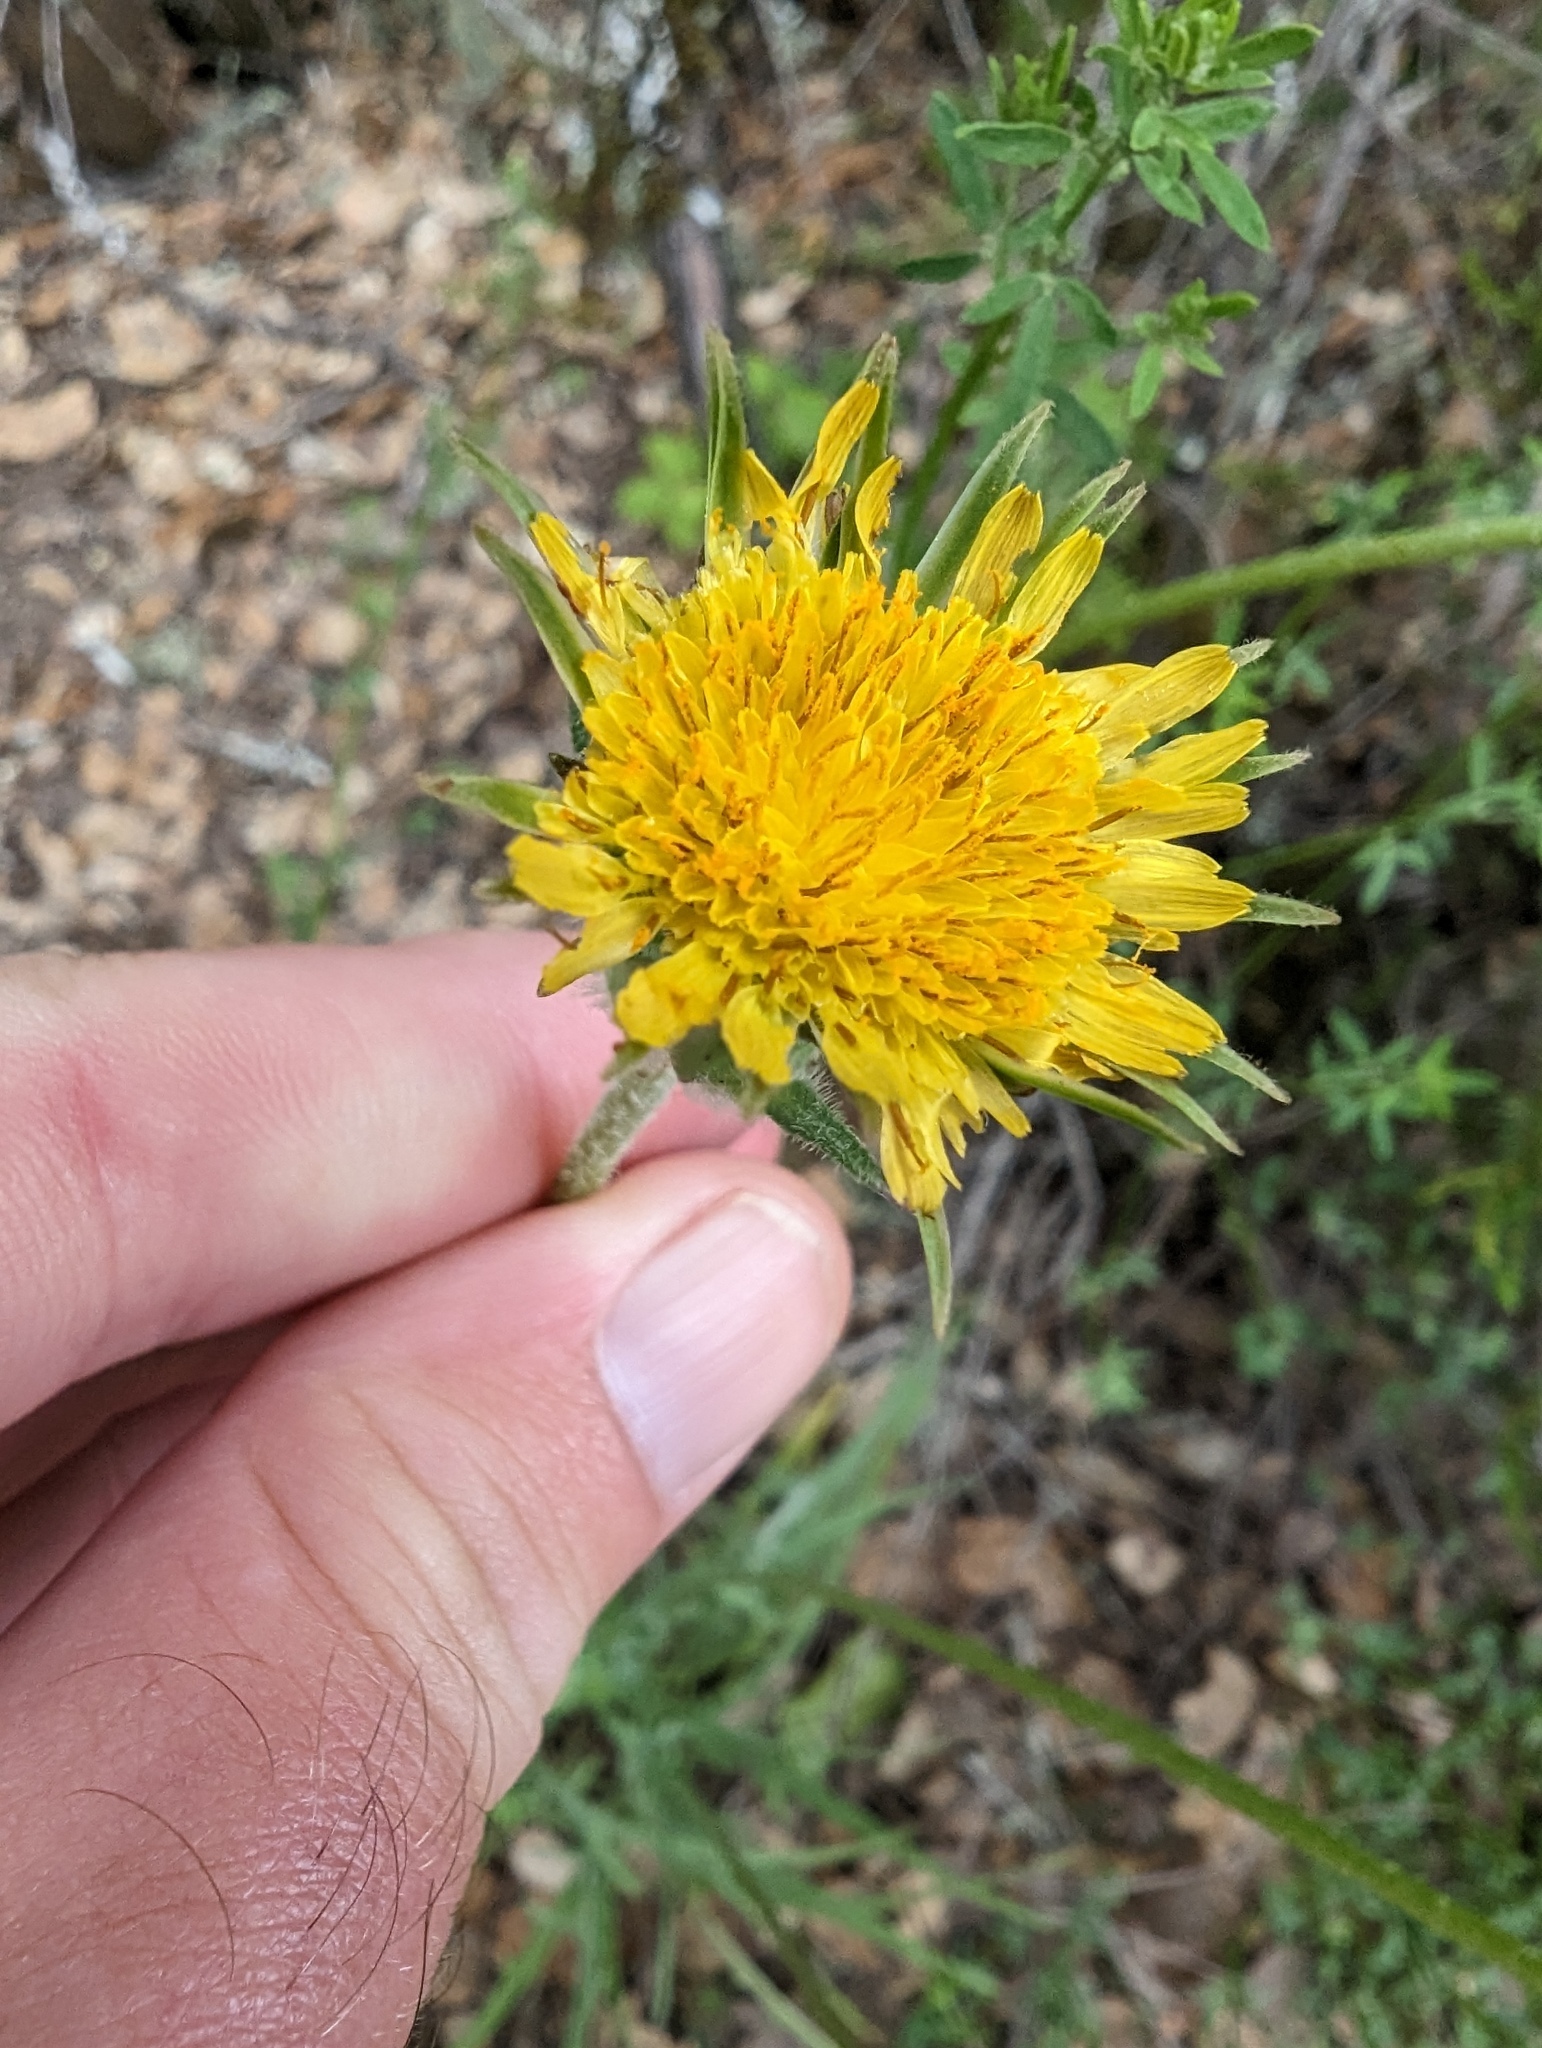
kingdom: Plantae
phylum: Tracheophyta
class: Magnoliopsida
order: Asterales
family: Asteraceae
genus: Agoseris
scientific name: Agoseris grandiflora
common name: Grassland agoseris
